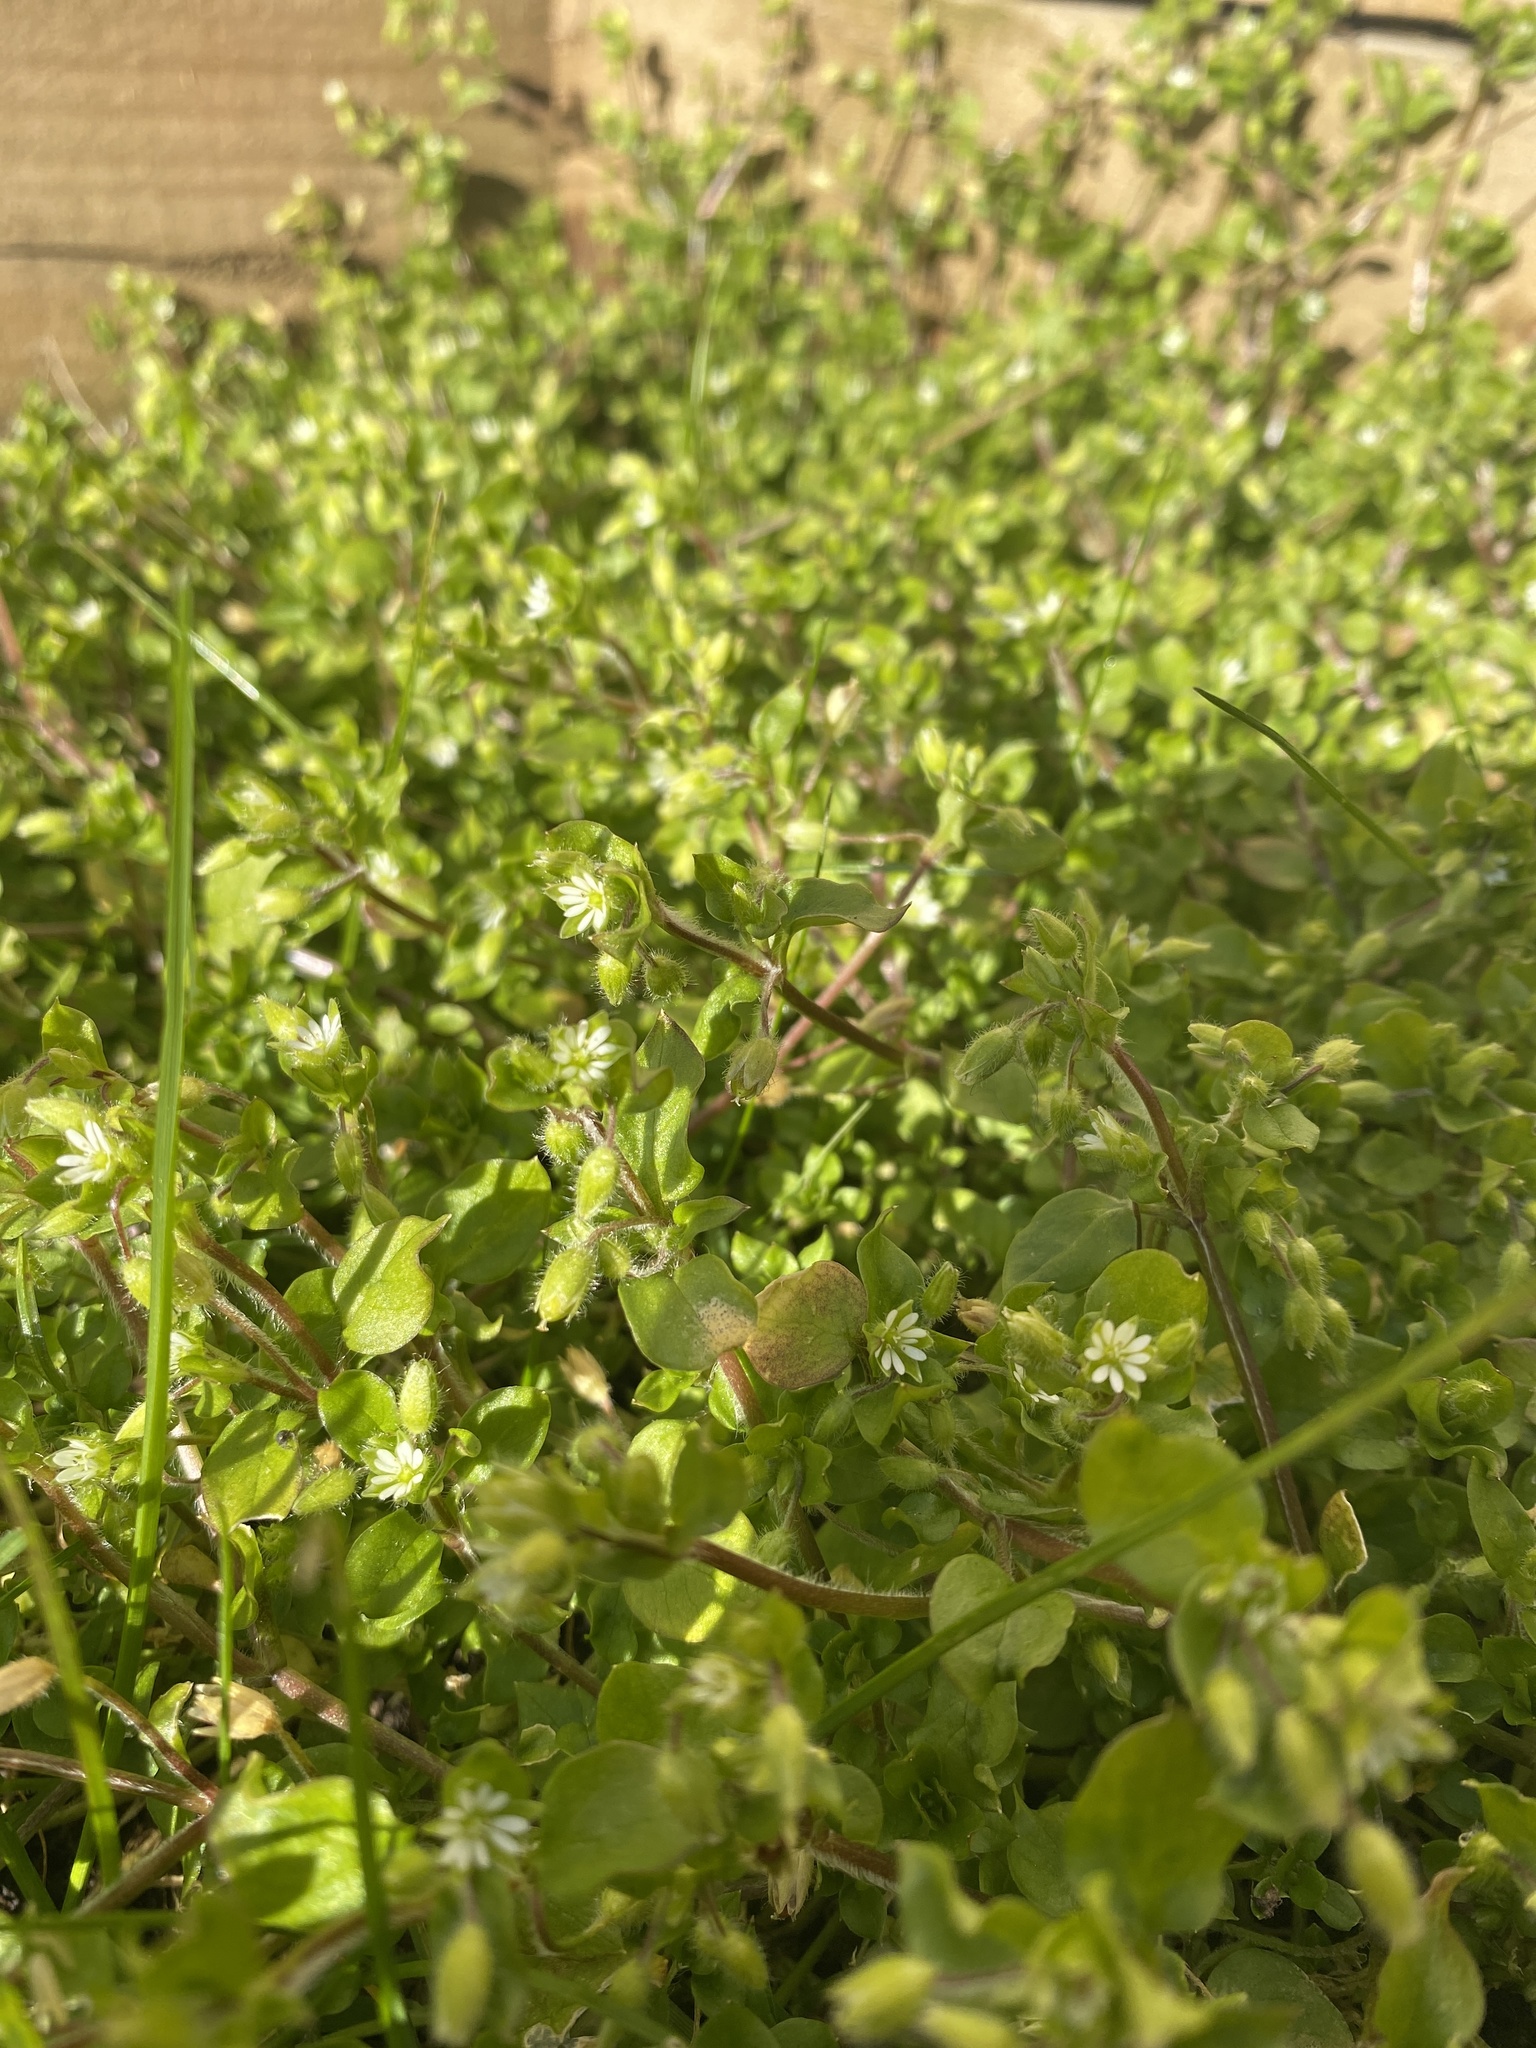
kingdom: Plantae
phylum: Tracheophyta
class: Magnoliopsida
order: Caryophyllales
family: Caryophyllaceae
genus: Stellaria
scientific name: Stellaria media
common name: Common chickweed
